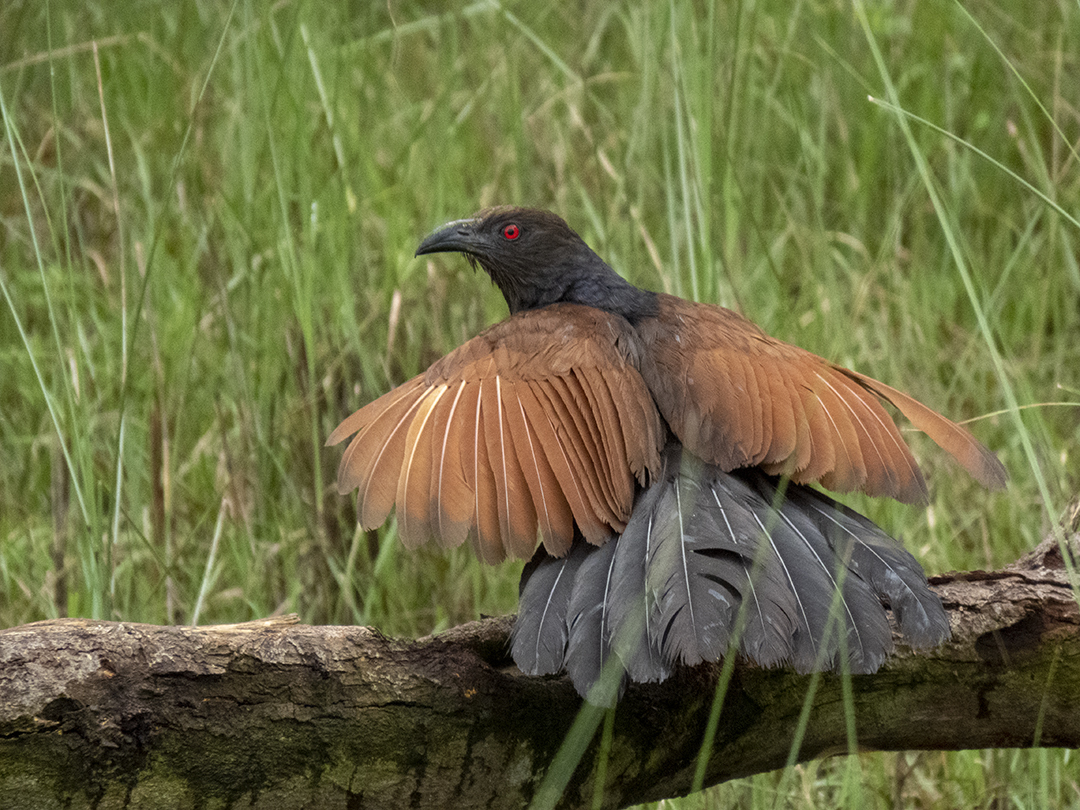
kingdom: Animalia
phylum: Chordata
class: Aves
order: Cuculiformes
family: Cuculidae
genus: Centropus
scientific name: Centropus sinensis
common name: Greater coucal
